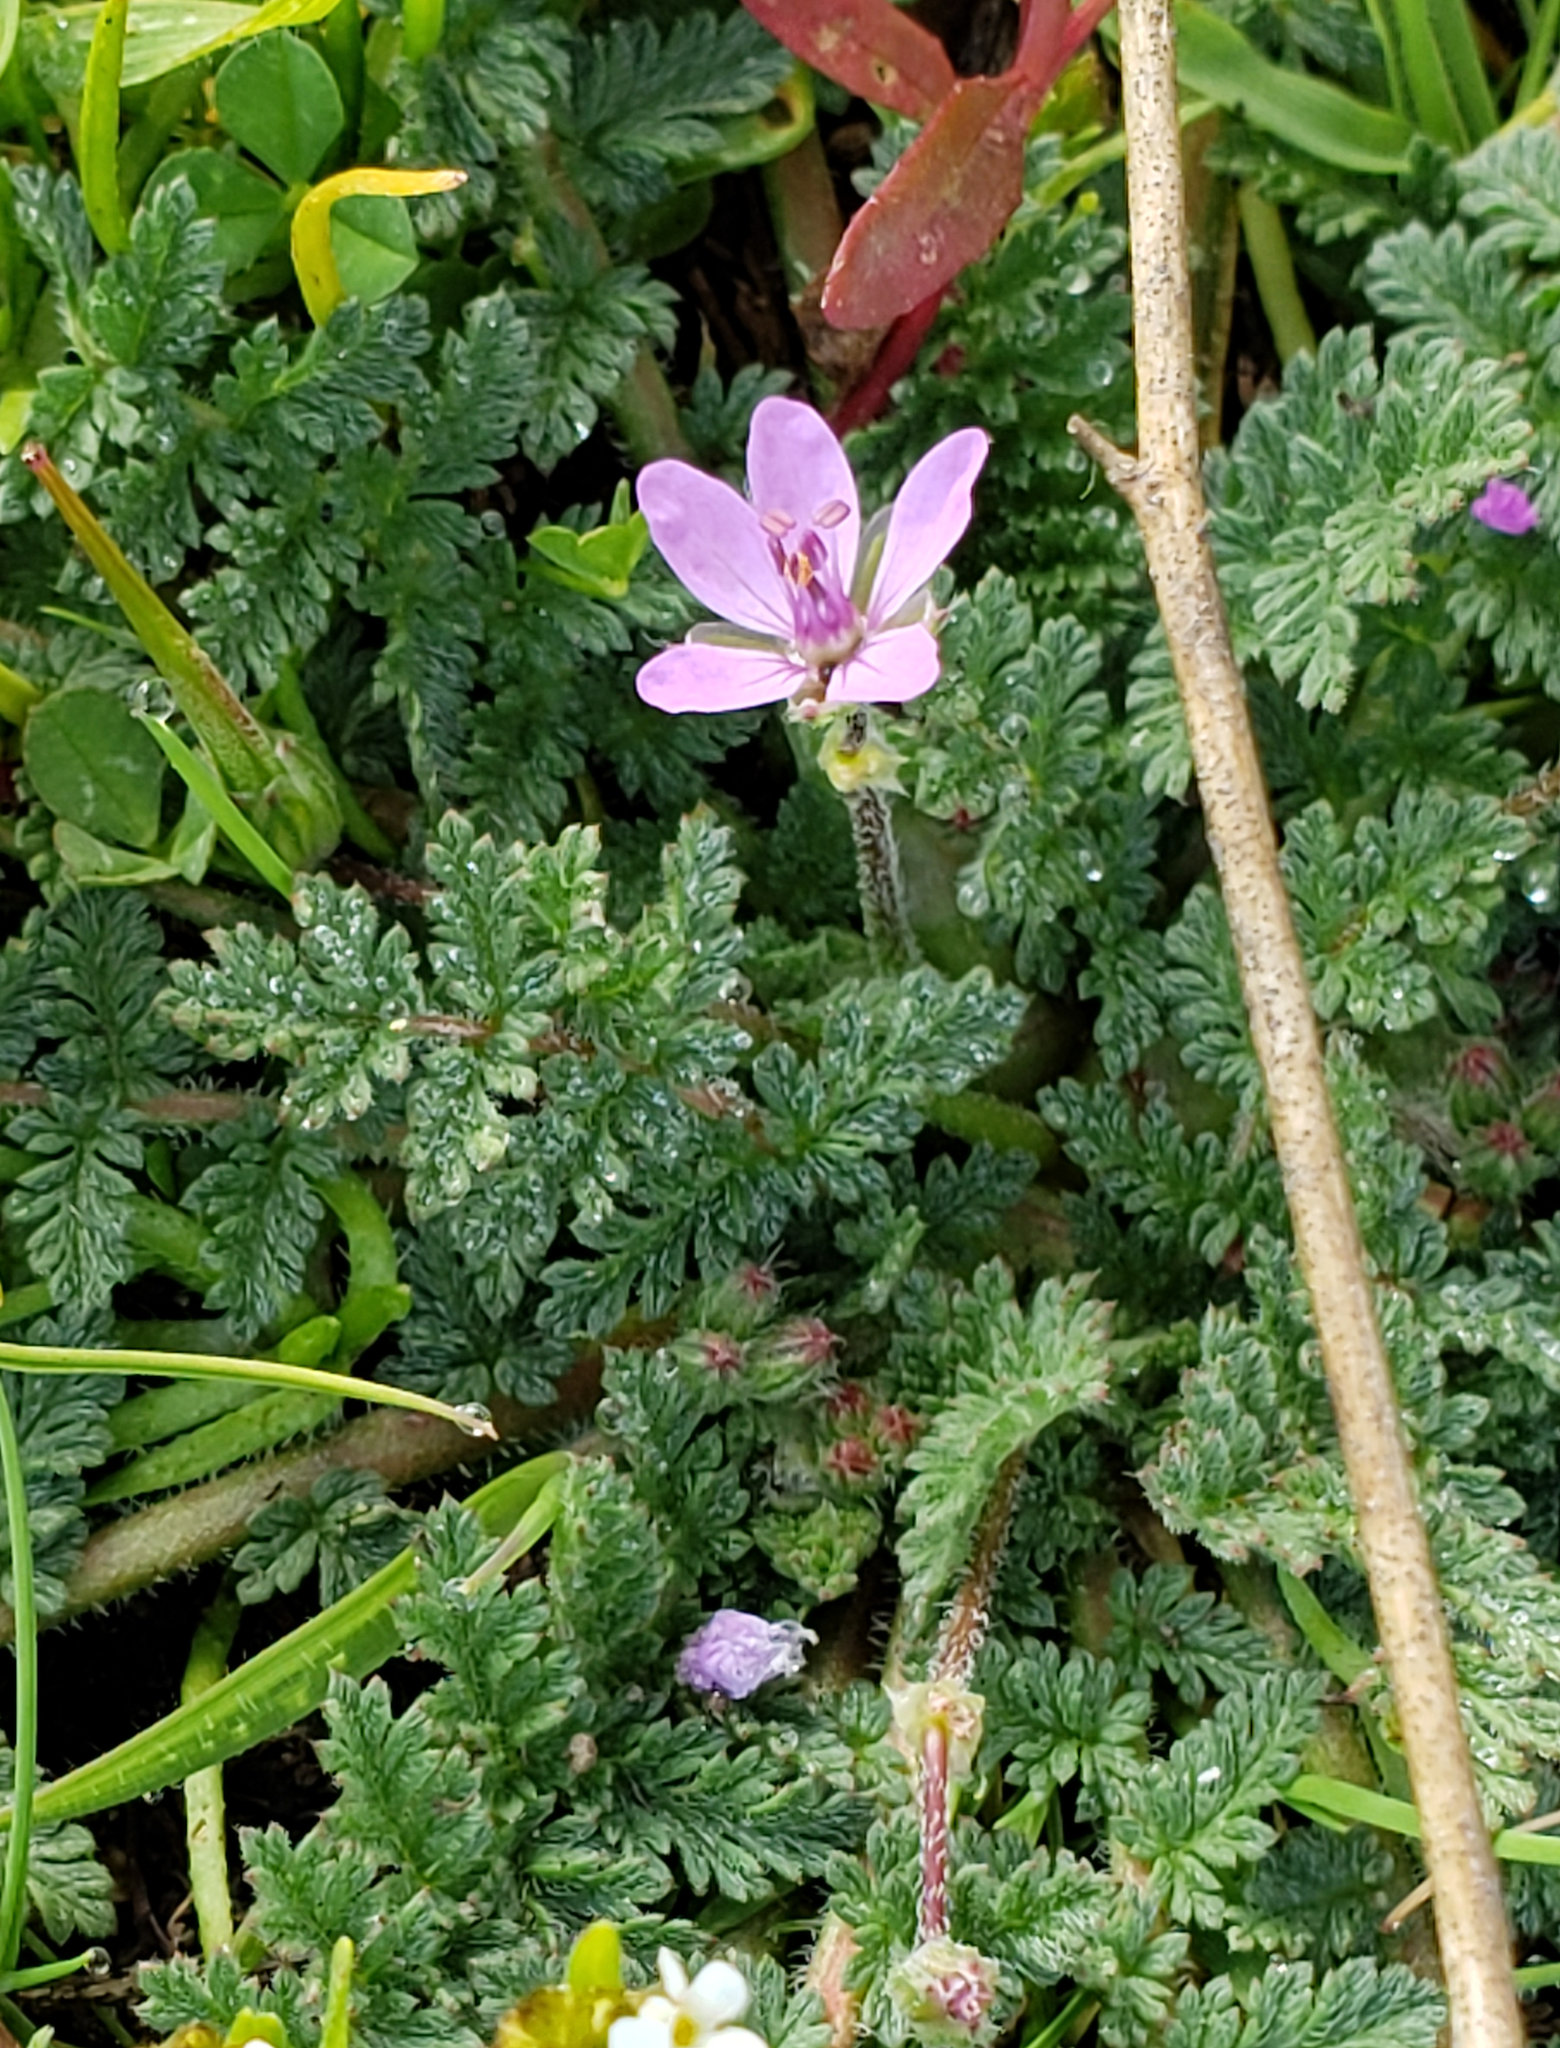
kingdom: Plantae
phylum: Tracheophyta
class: Magnoliopsida
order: Geraniales
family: Geraniaceae
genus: Erodium
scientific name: Erodium cicutarium
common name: Common stork's-bill
